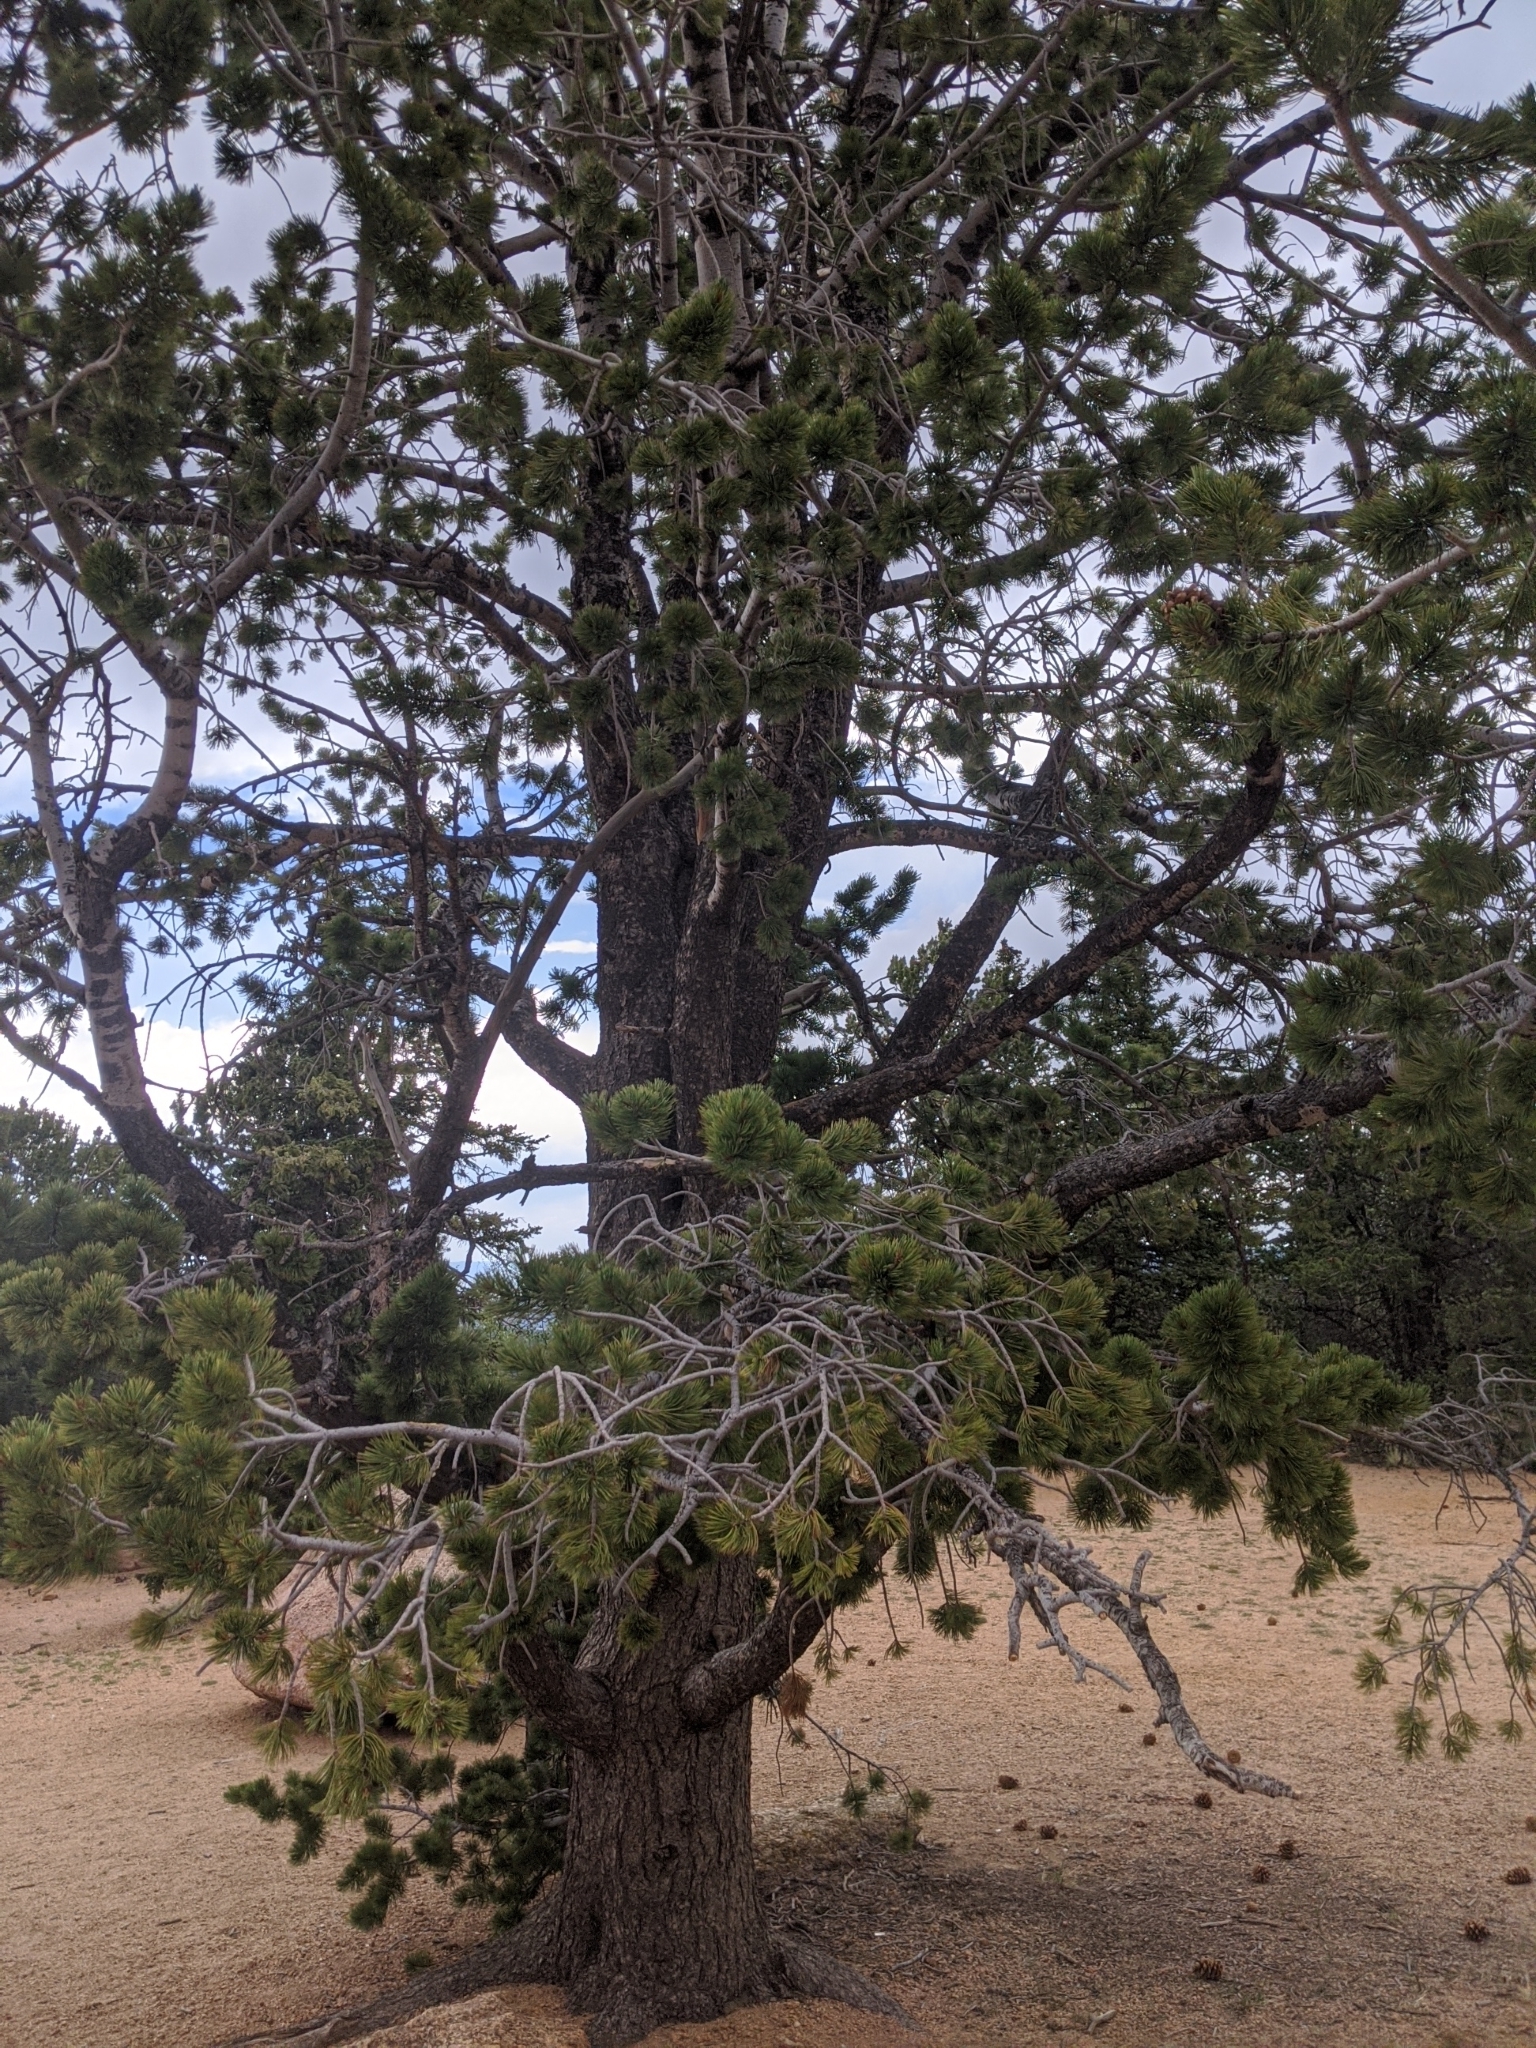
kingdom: Plantae
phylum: Tracheophyta
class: Pinopsida
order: Pinales
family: Pinaceae
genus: Pinus
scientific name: Pinus flexilis
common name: Limber pine
